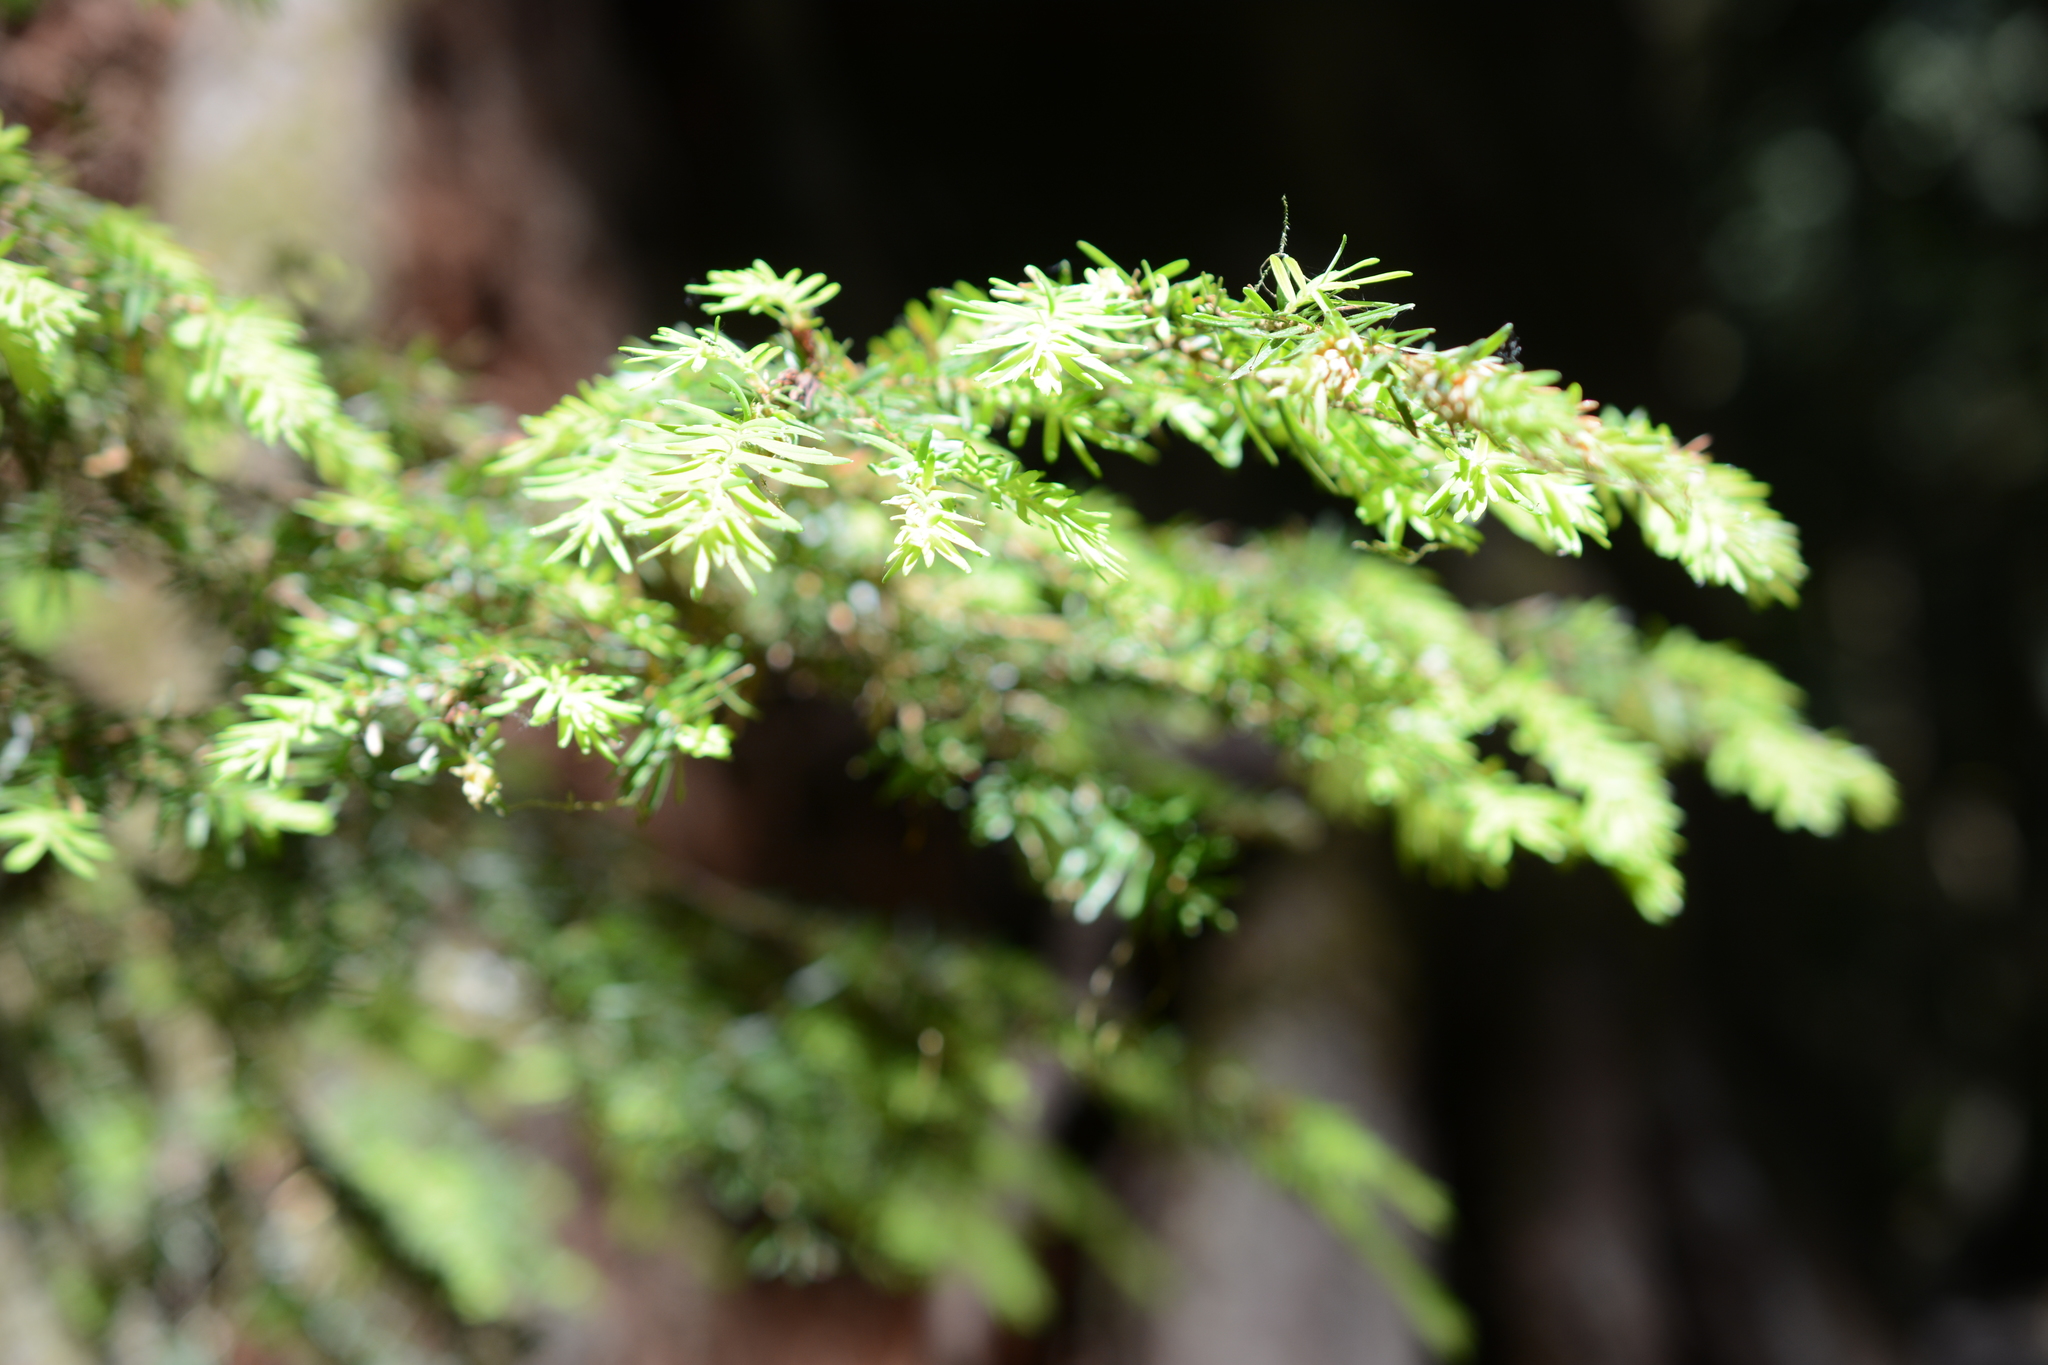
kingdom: Plantae
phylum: Tracheophyta
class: Pinopsida
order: Pinales
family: Pinaceae
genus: Tsuga
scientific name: Tsuga heterophylla
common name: Western hemlock
